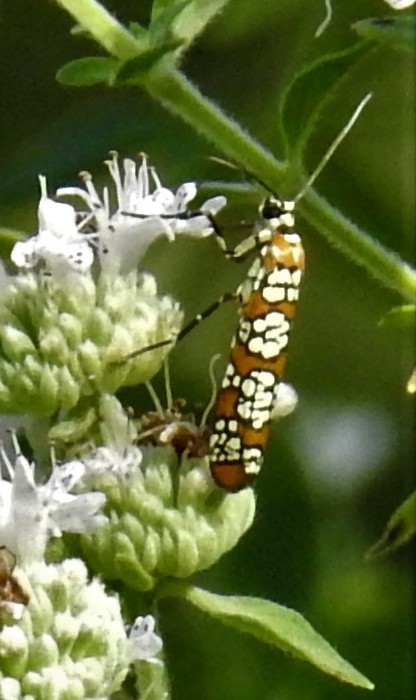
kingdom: Animalia
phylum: Arthropoda
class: Insecta
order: Lepidoptera
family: Attevidae
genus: Atteva
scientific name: Atteva punctella
